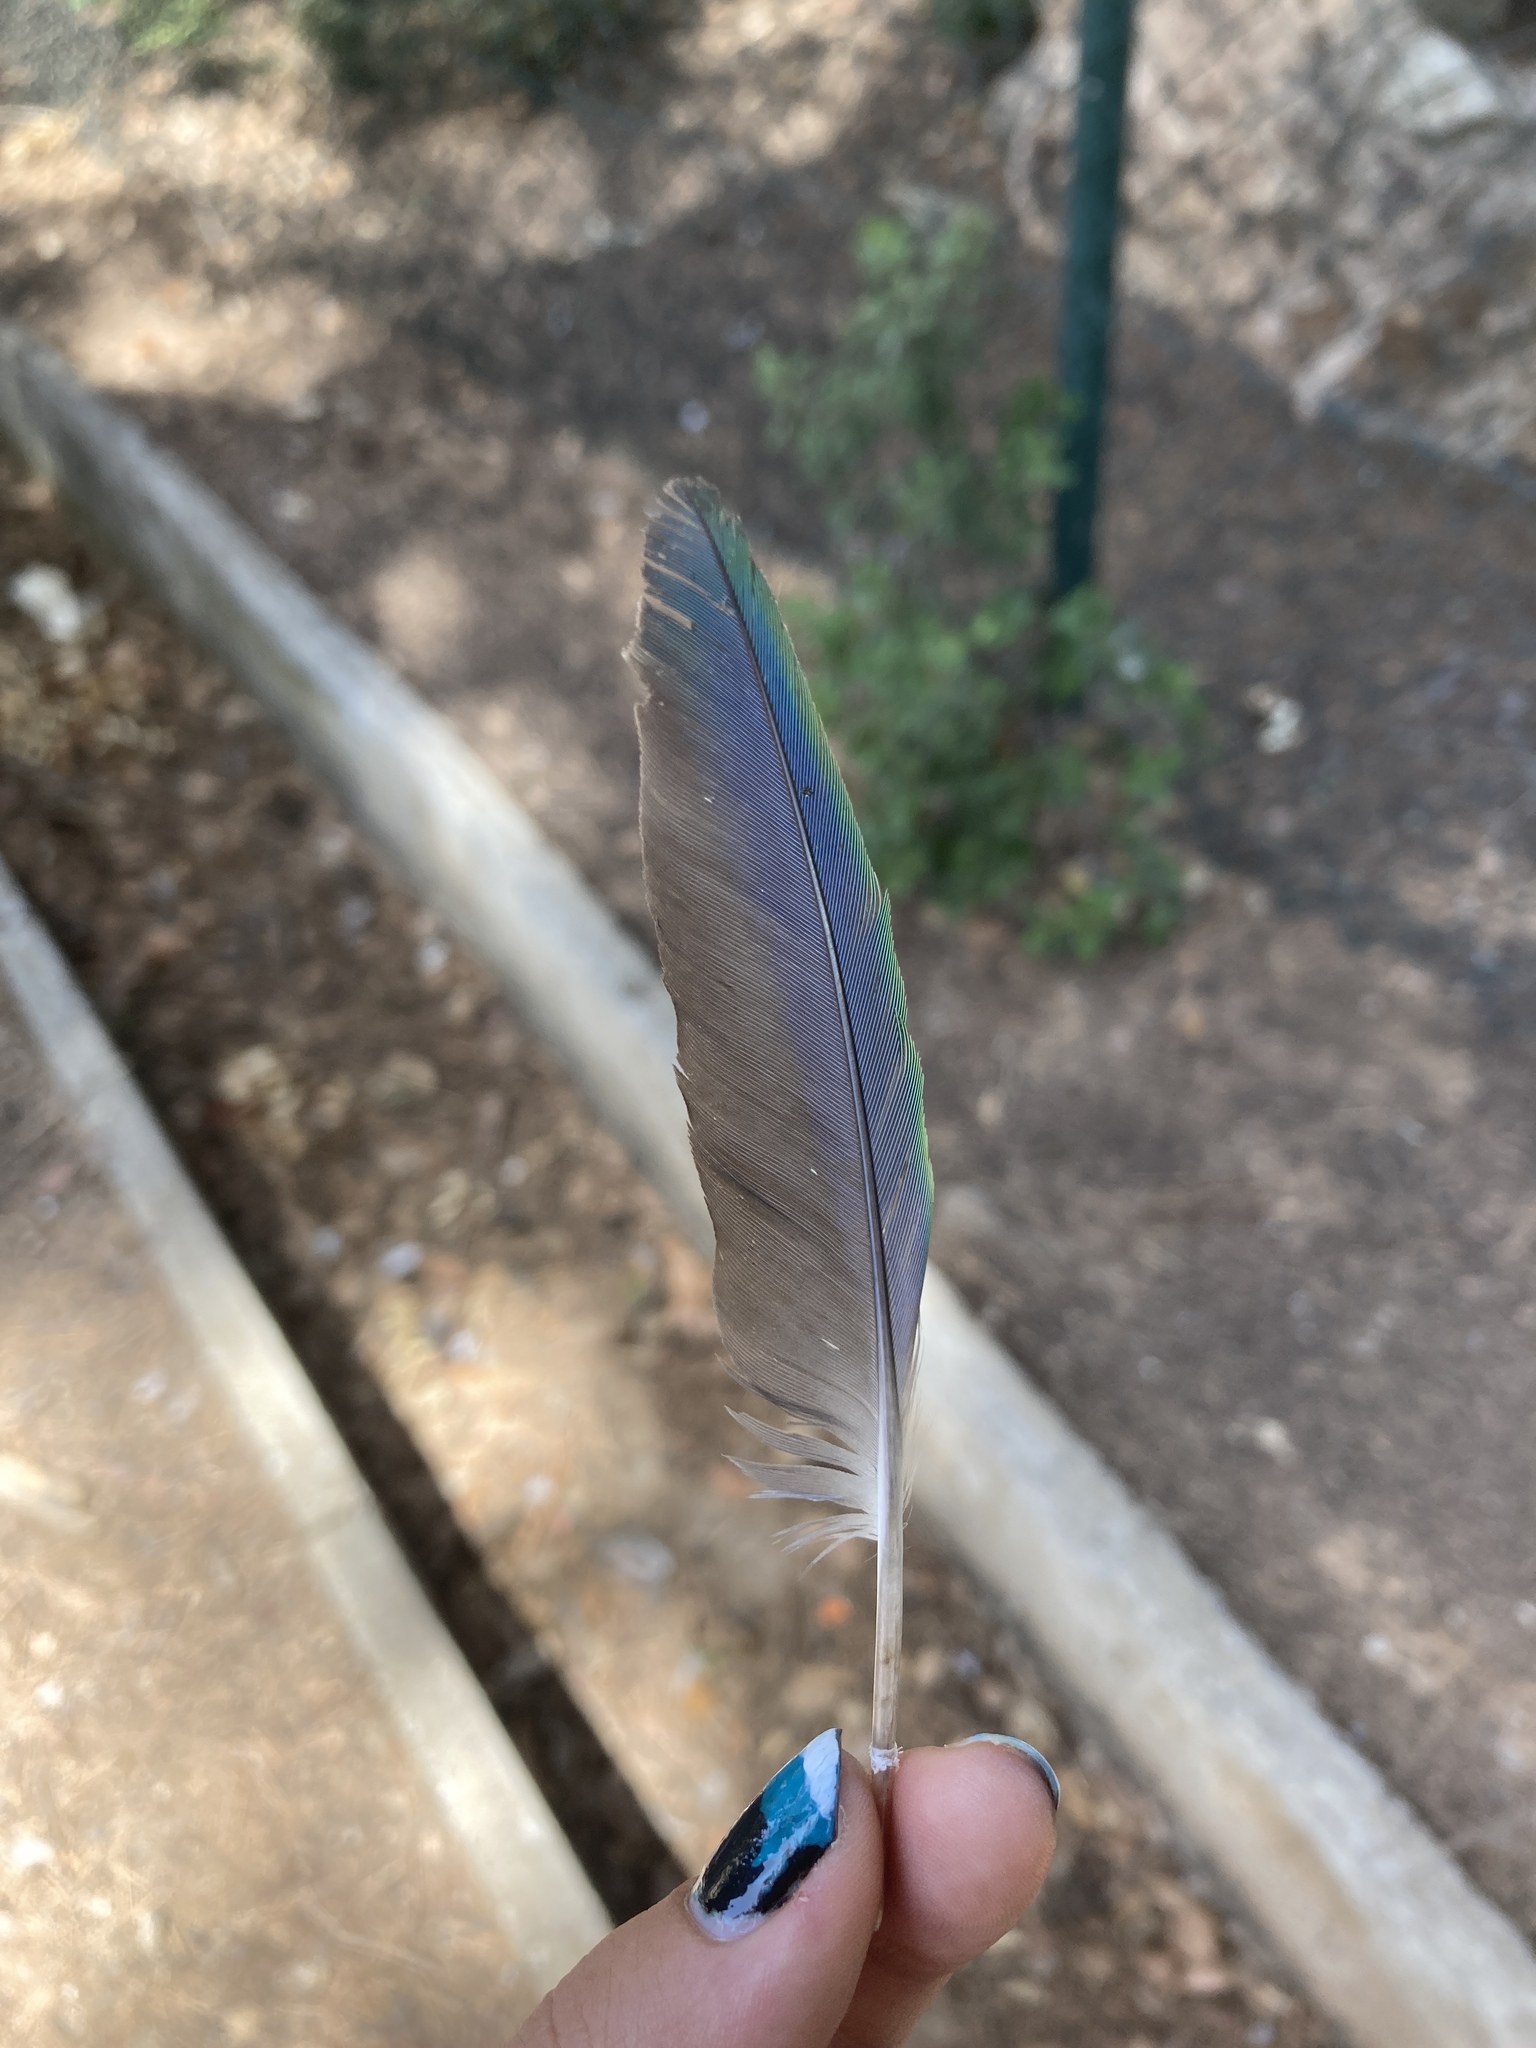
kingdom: Animalia
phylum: Chordata
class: Aves
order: Psittaciformes
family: Psittacidae
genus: Myiopsitta
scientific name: Myiopsitta monachus
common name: Monk parakeet
